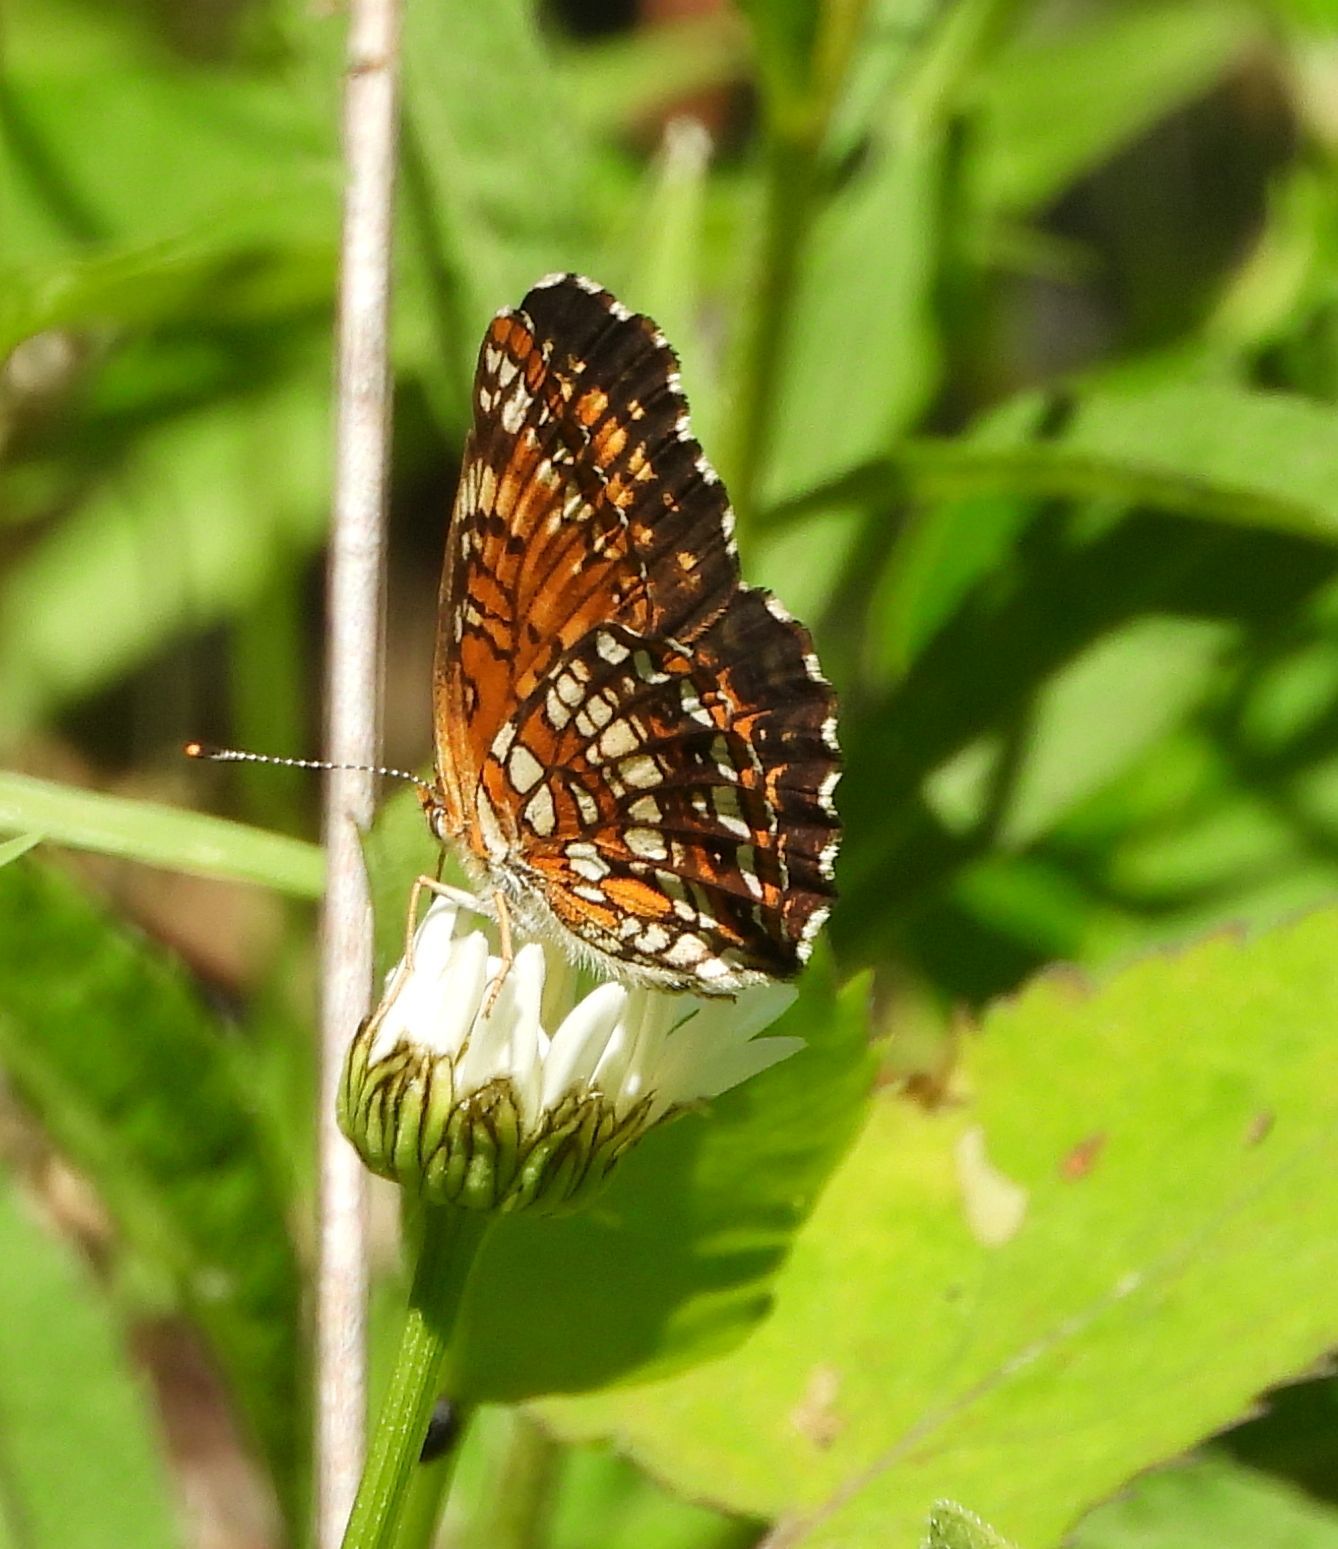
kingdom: Animalia
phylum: Arthropoda
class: Insecta
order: Lepidoptera
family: Nymphalidae
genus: Chlosyne
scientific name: Chlosyne harrisii
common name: Harris's checkerspot
